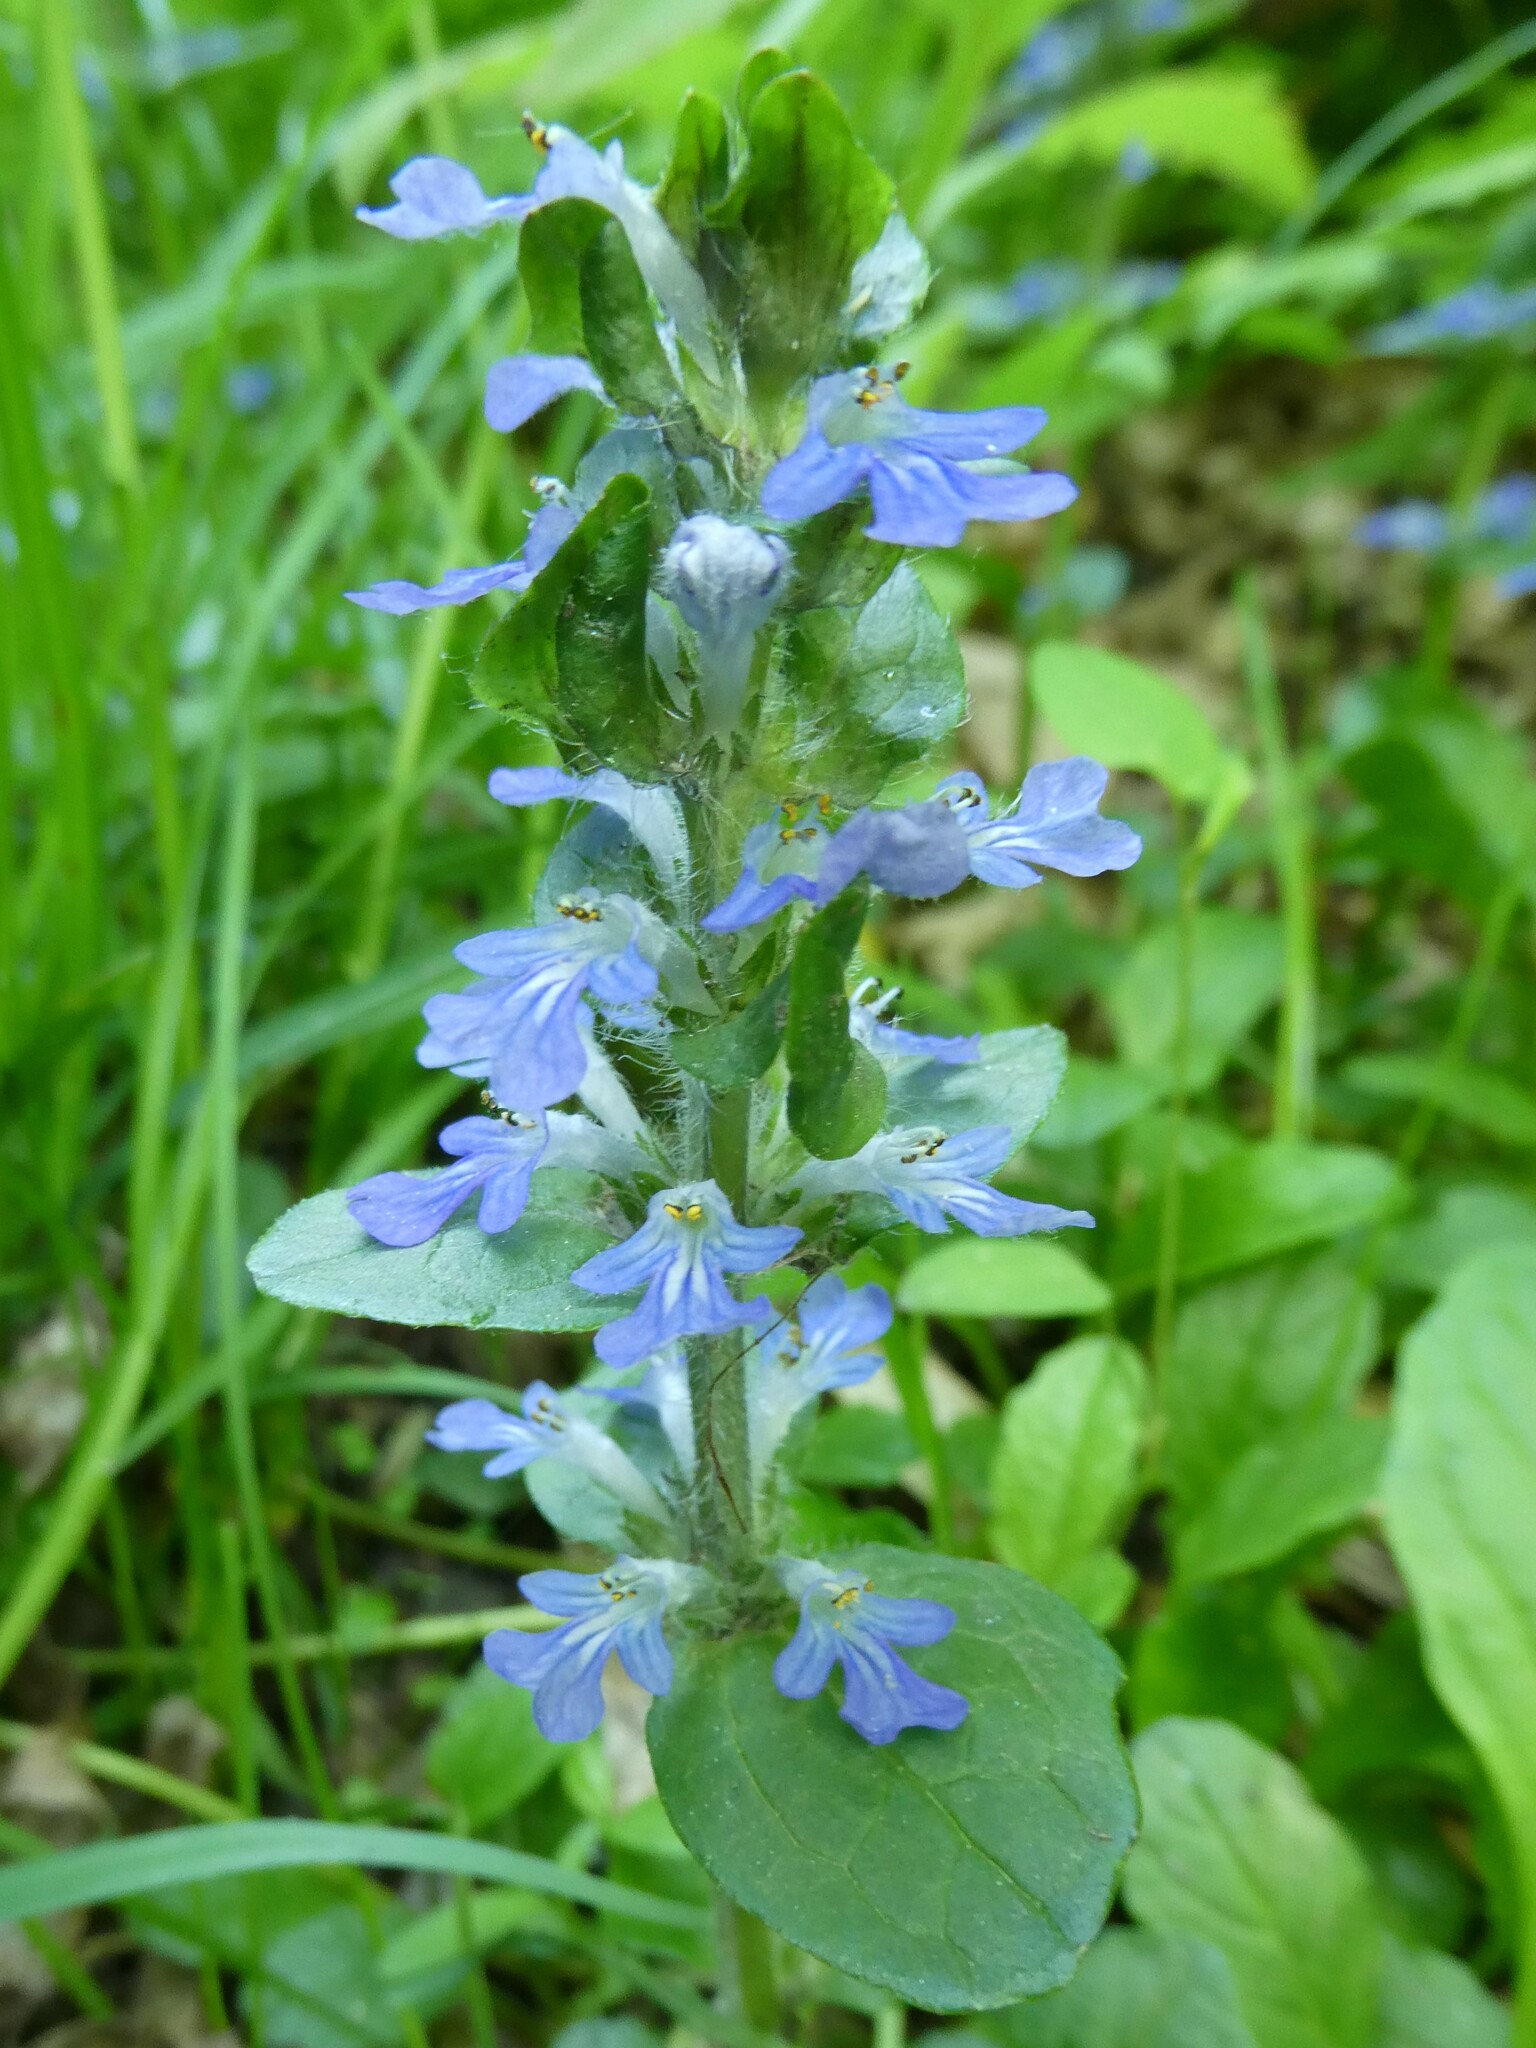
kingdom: Plantae
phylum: Tracheophyta
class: Magnoliopsida
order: Lamiales
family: Lamiaceae
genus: Ajuga
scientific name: Ajuga reptans
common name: Bugle
